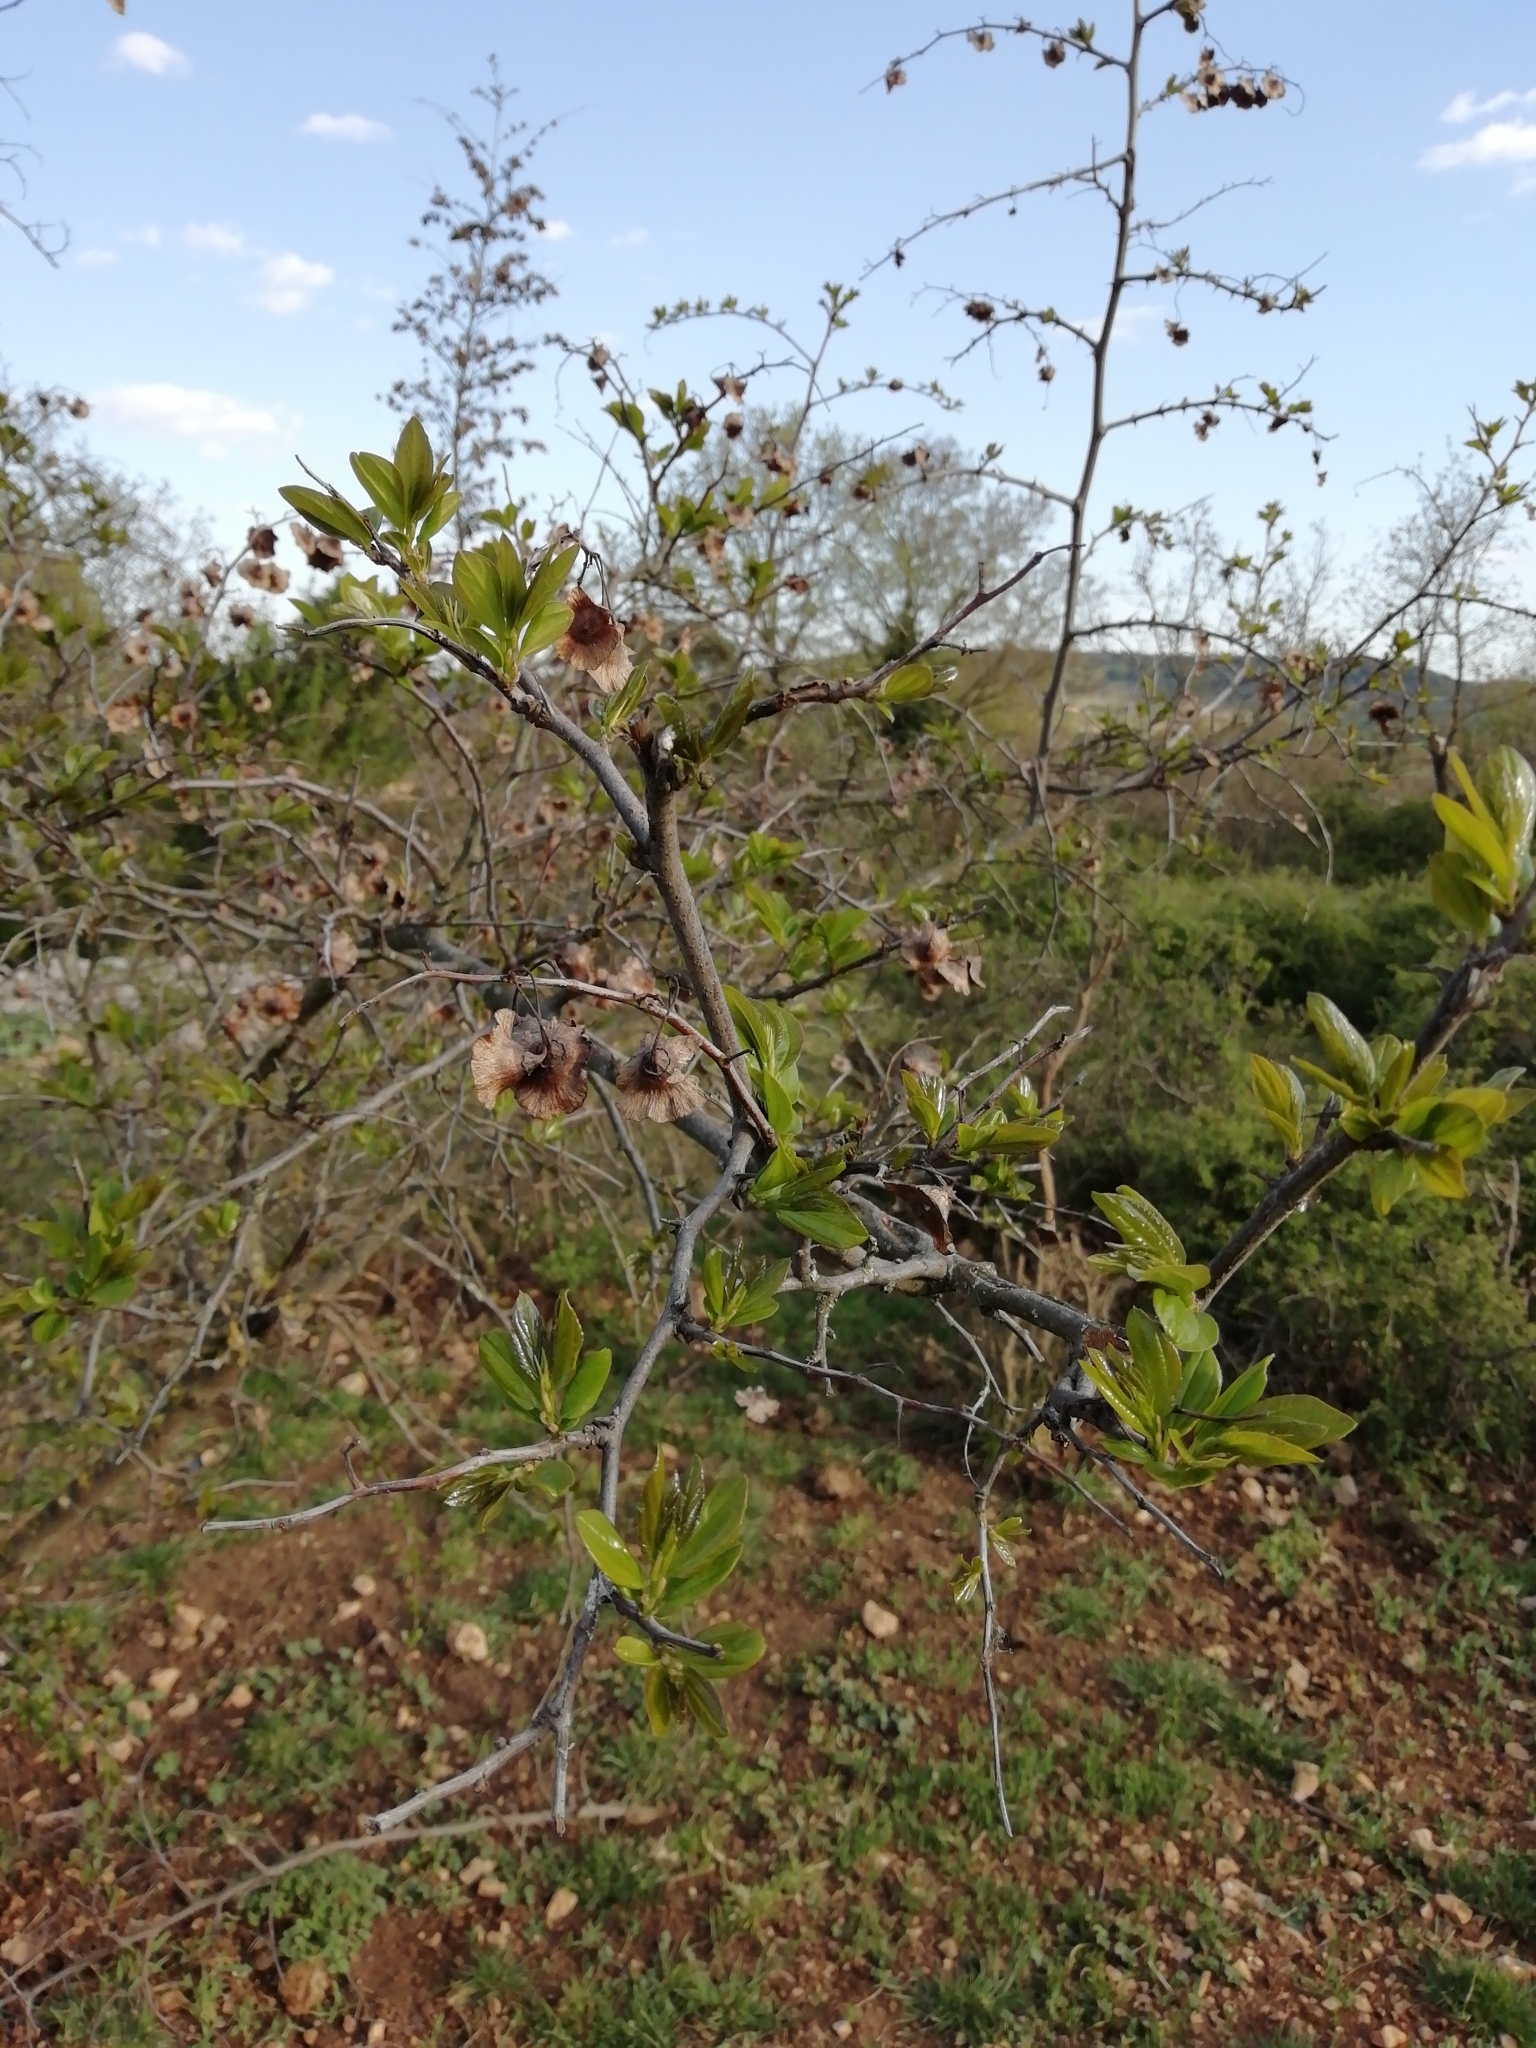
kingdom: Plantae
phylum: Tracheophyta
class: Magnoliopsida
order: Rosales
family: Rhamnaceae
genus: Paliurus
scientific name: Paliurus spina-christi
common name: Jeruselem thorn
